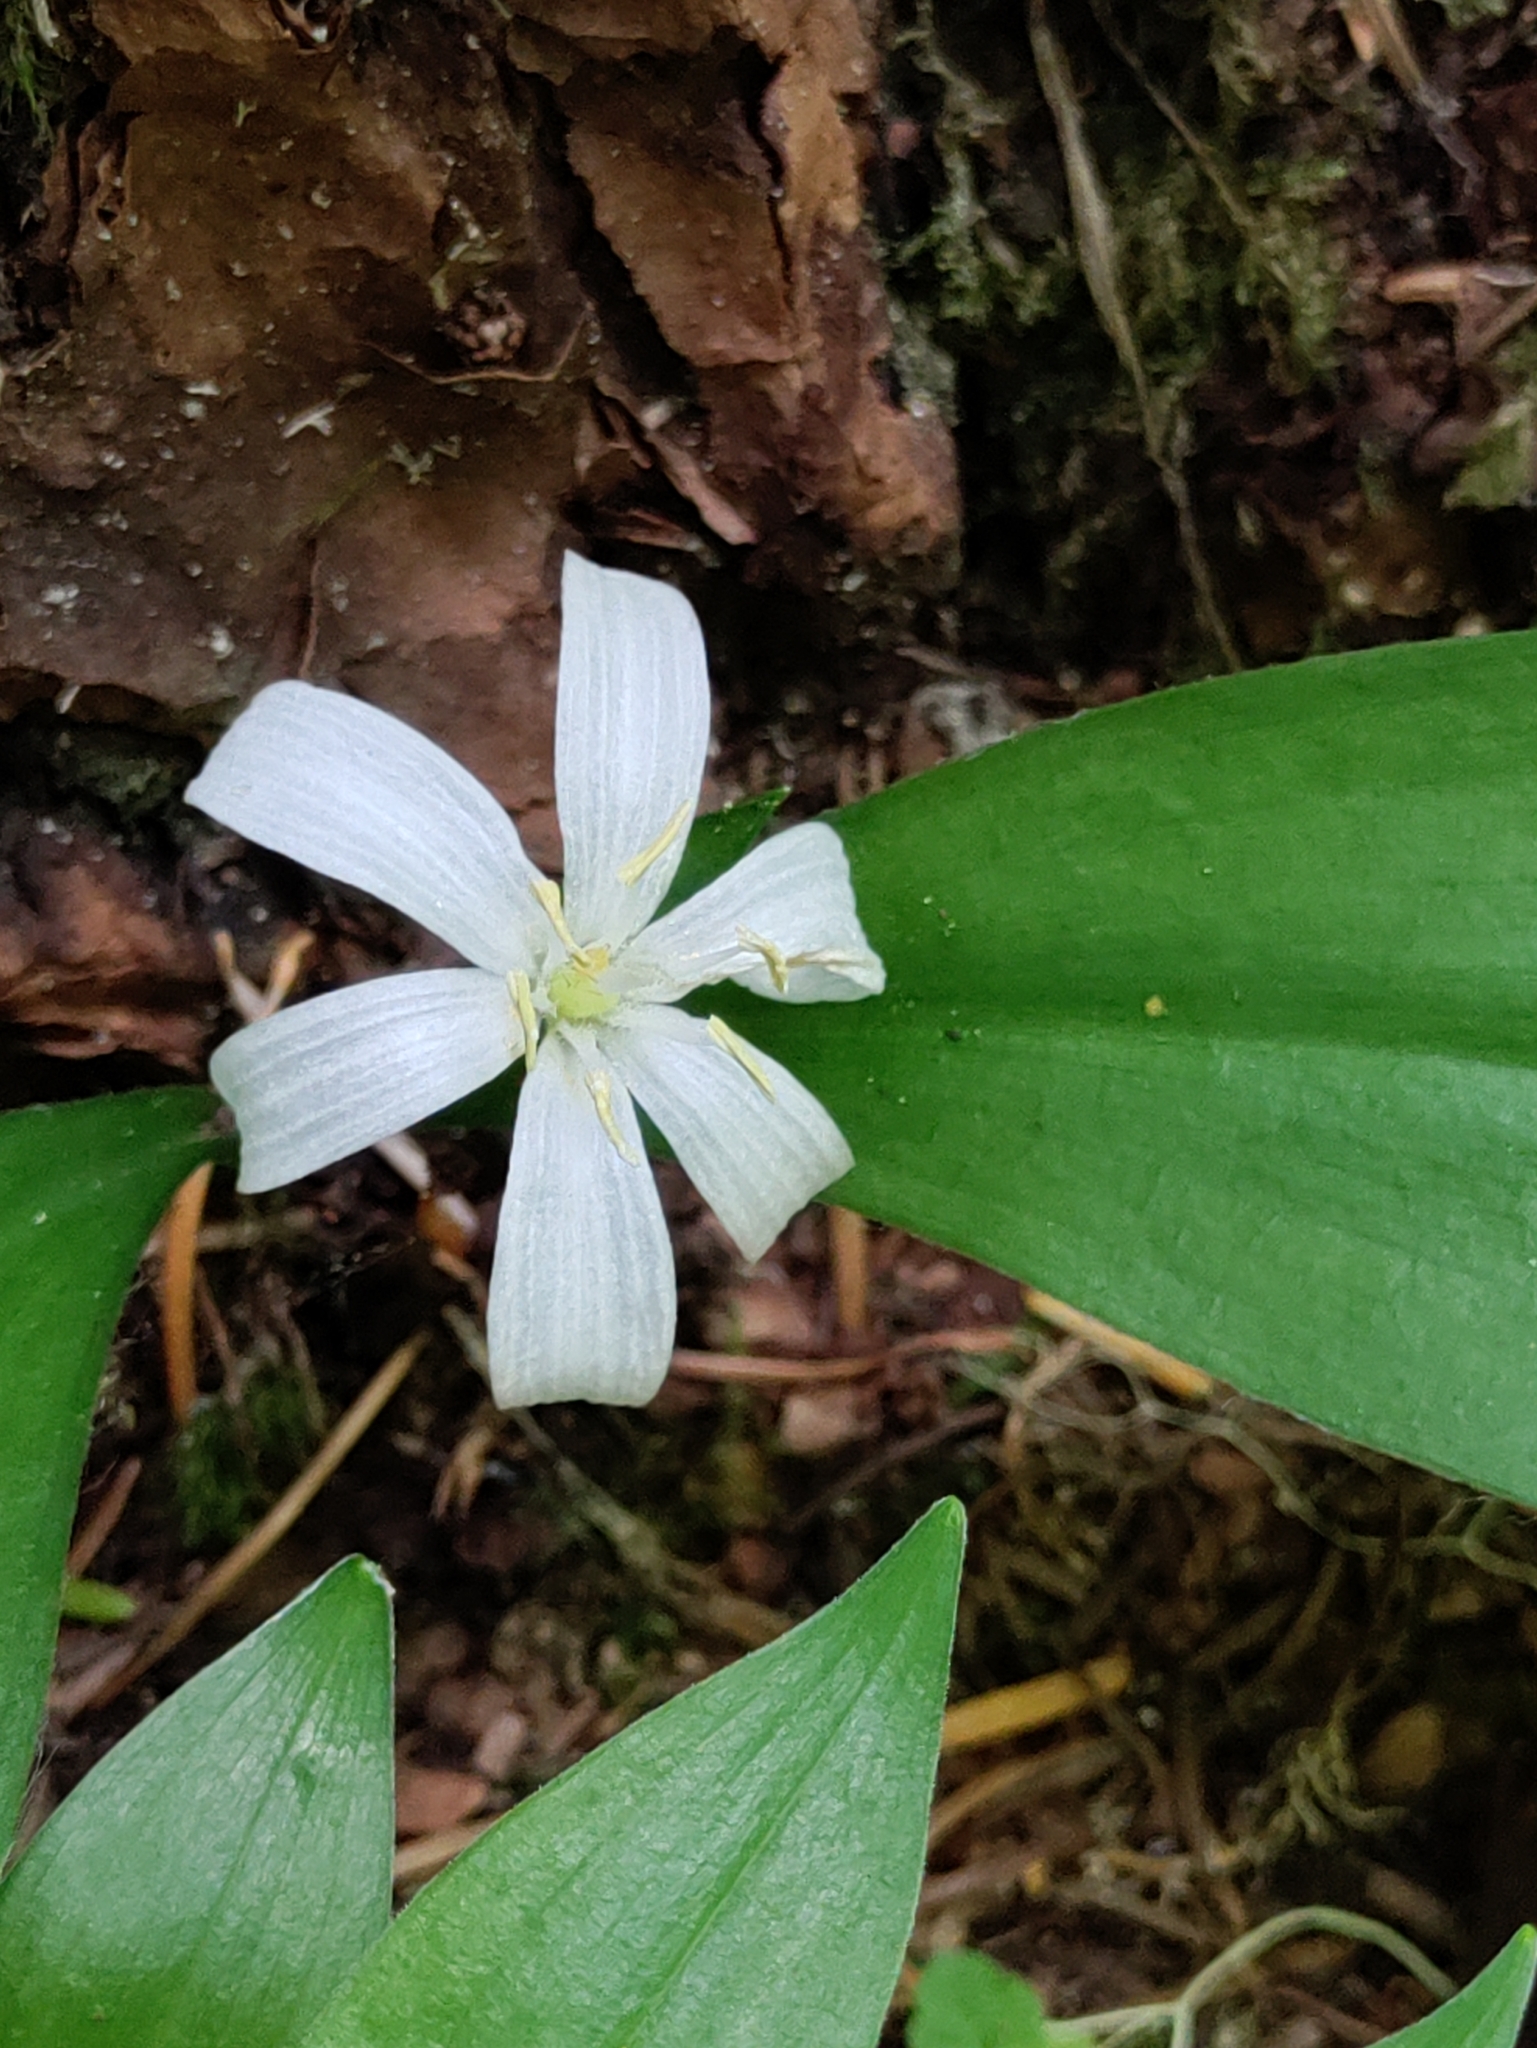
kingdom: Plantae
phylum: Tracheophyta
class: Liliopsida
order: Liliales
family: Liliaceae
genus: Clintonia
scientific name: Clintonia uniflora
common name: Queen's cup
